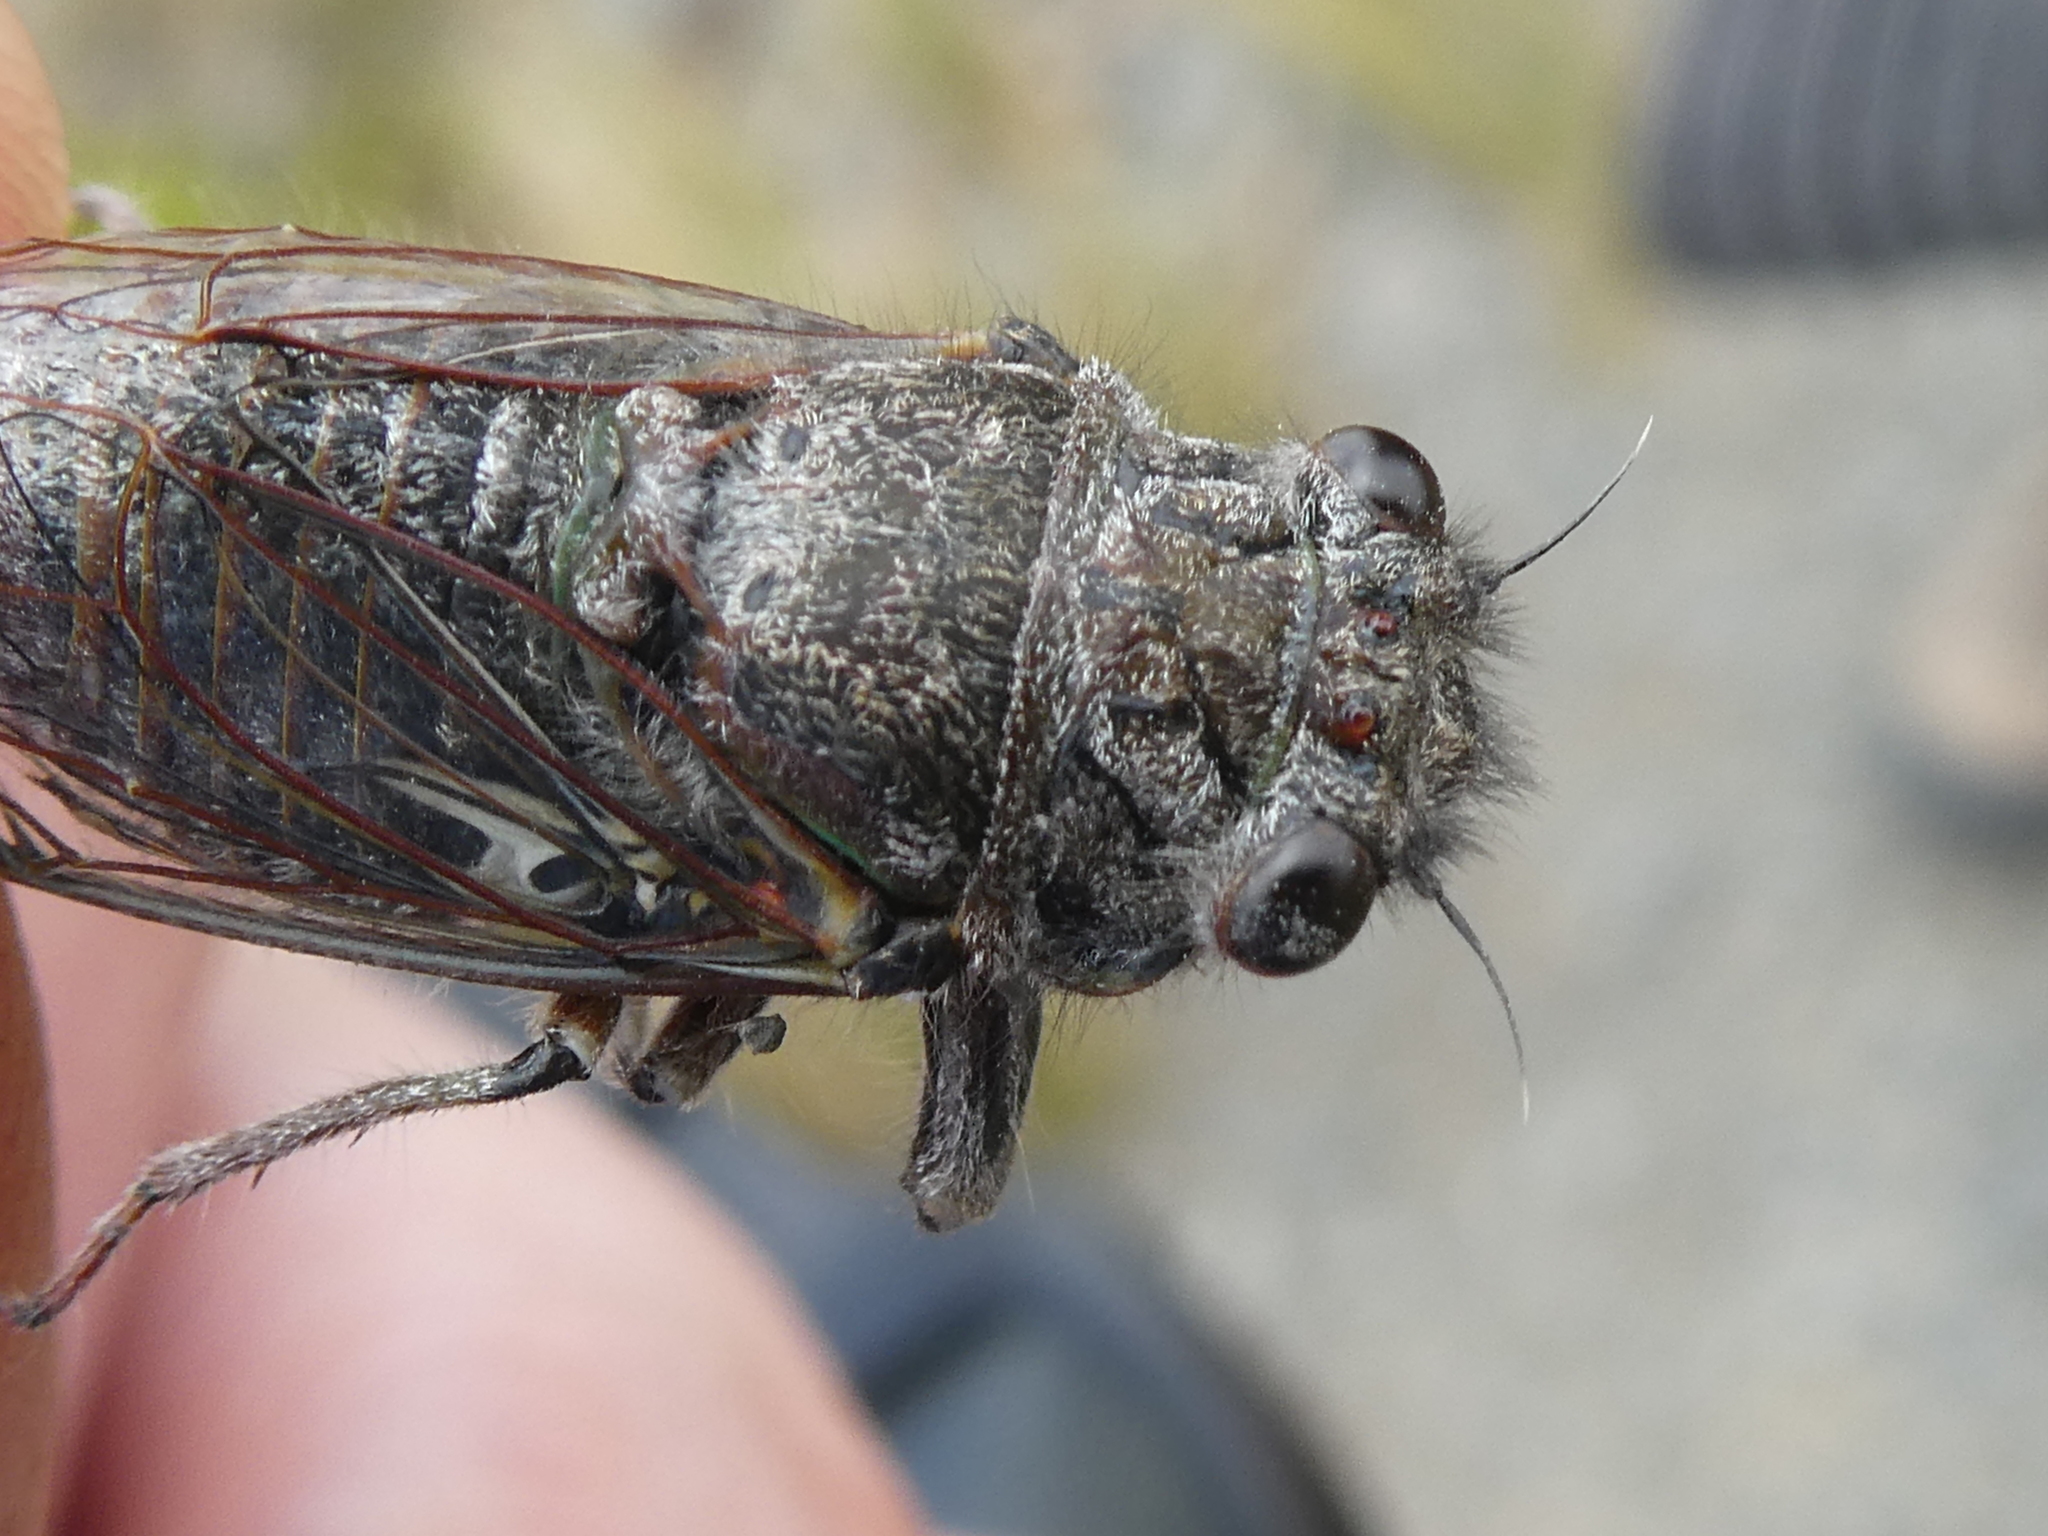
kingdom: Animalia
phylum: Arthropoda
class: Insecta
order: Hemiptera
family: Cicadidae
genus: Maoricicada
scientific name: Maoricicada cassiope
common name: Screaming cicada
